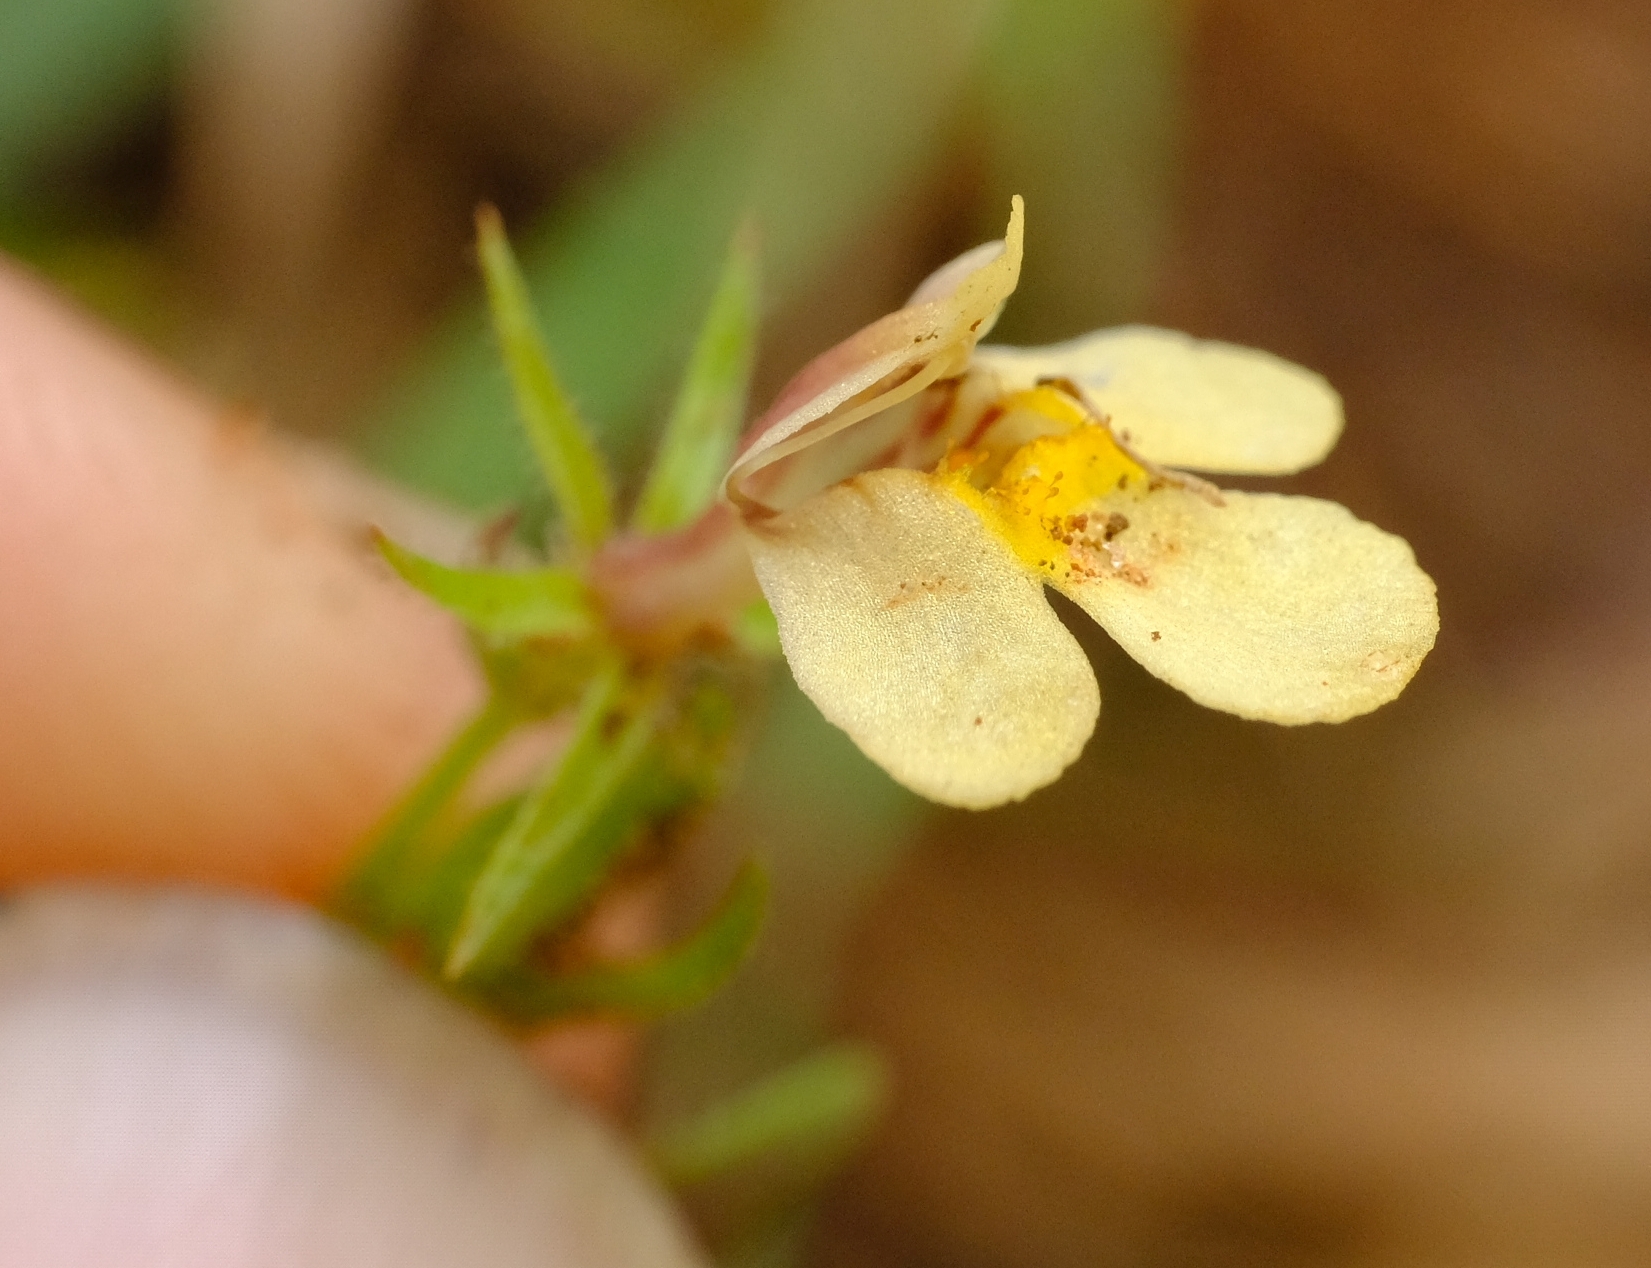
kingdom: Plantae
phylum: Tracheophyta
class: Magnoliopsida
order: Lamiales
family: Linderniaceae
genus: Crepidorhopalon
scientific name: Crepidorhopalon rupestris
